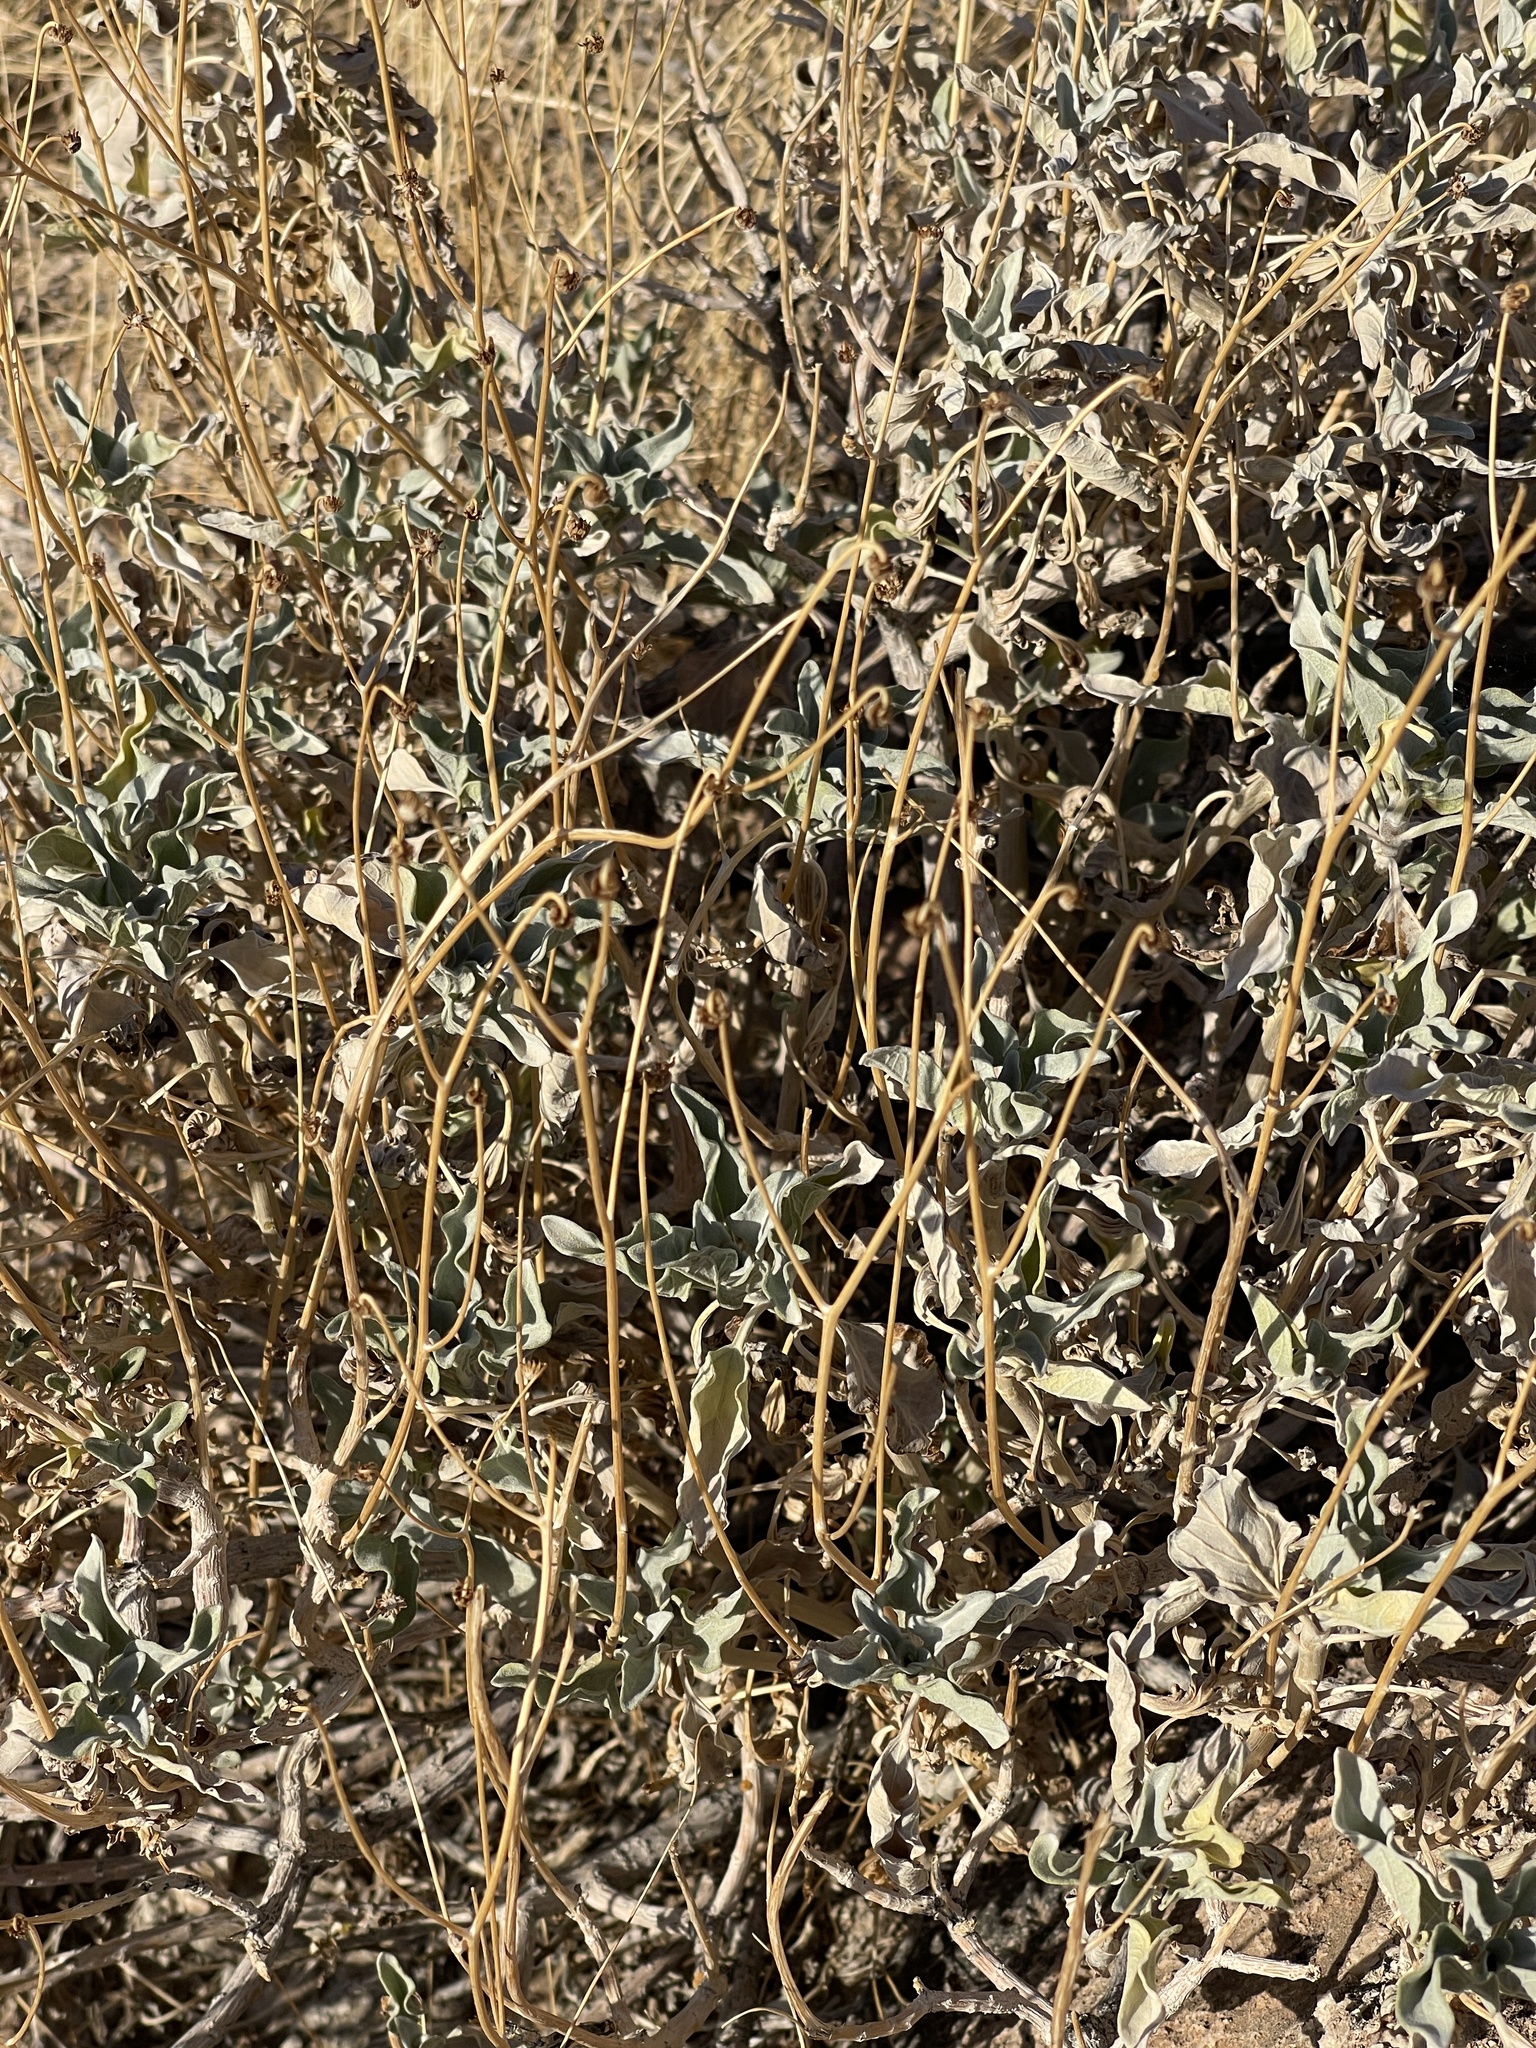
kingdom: Plantae
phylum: Tracheophyta
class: Magnoliopsida
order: Asterales
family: Asteraceae
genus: Encelia
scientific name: Encelia farinosa
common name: Brittlebush
